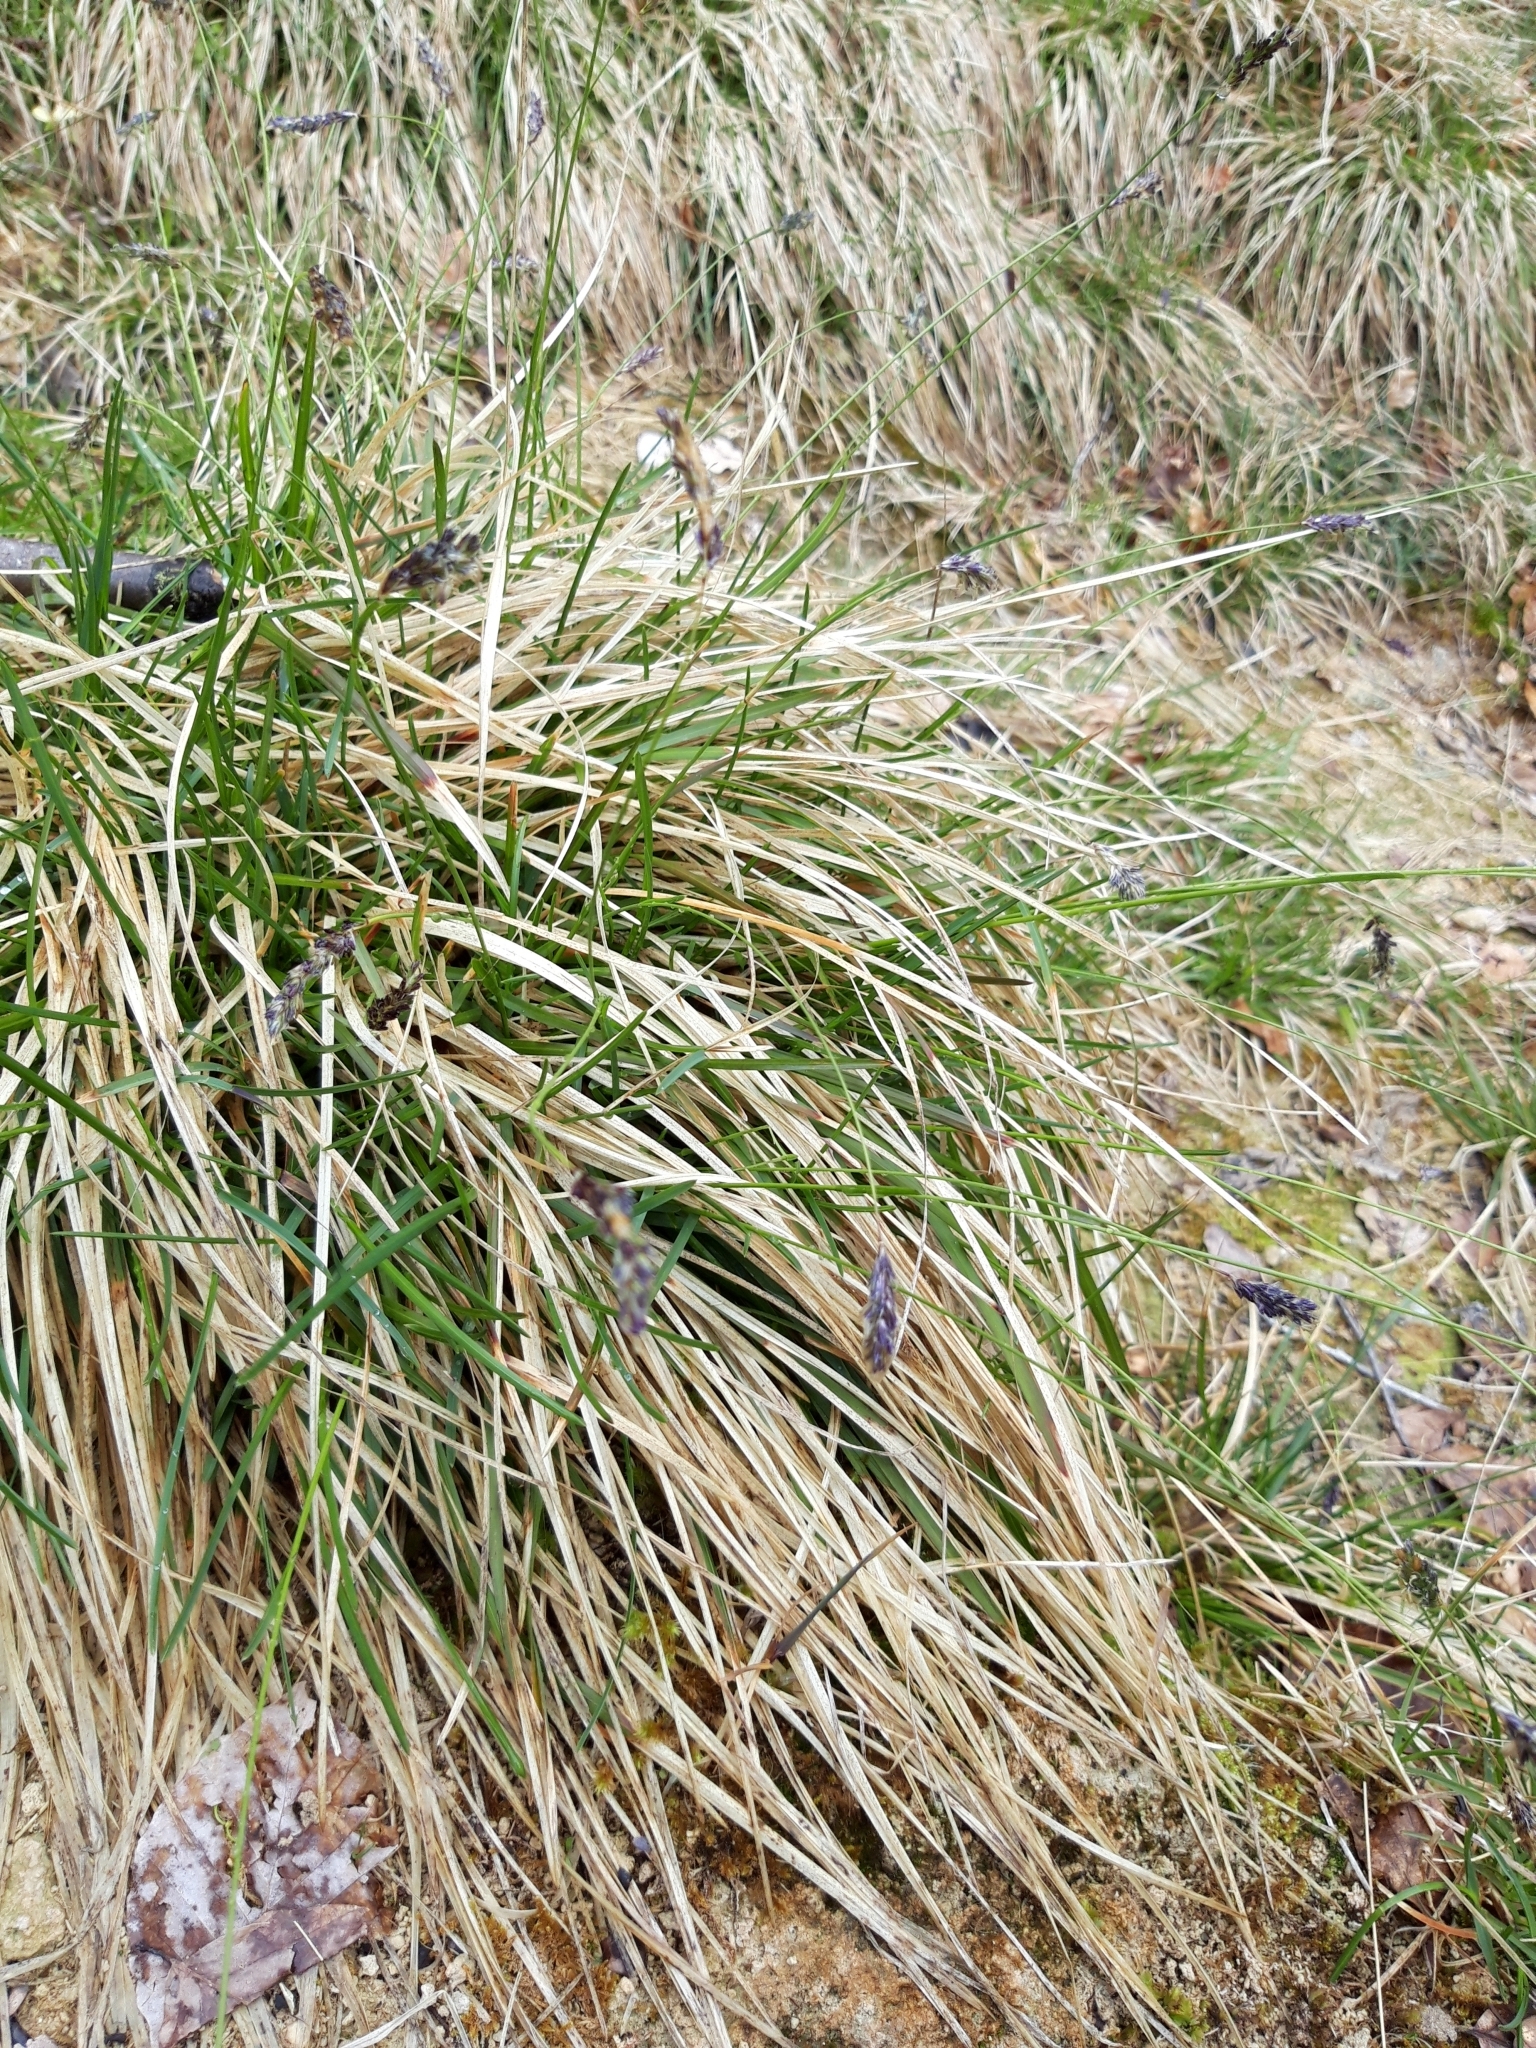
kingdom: Plantae
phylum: Tracheophyta
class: Liliopsida
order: Poales
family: Poaceae
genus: Sesleria
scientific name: Sesleria caerulea
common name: Blue moor-grass
